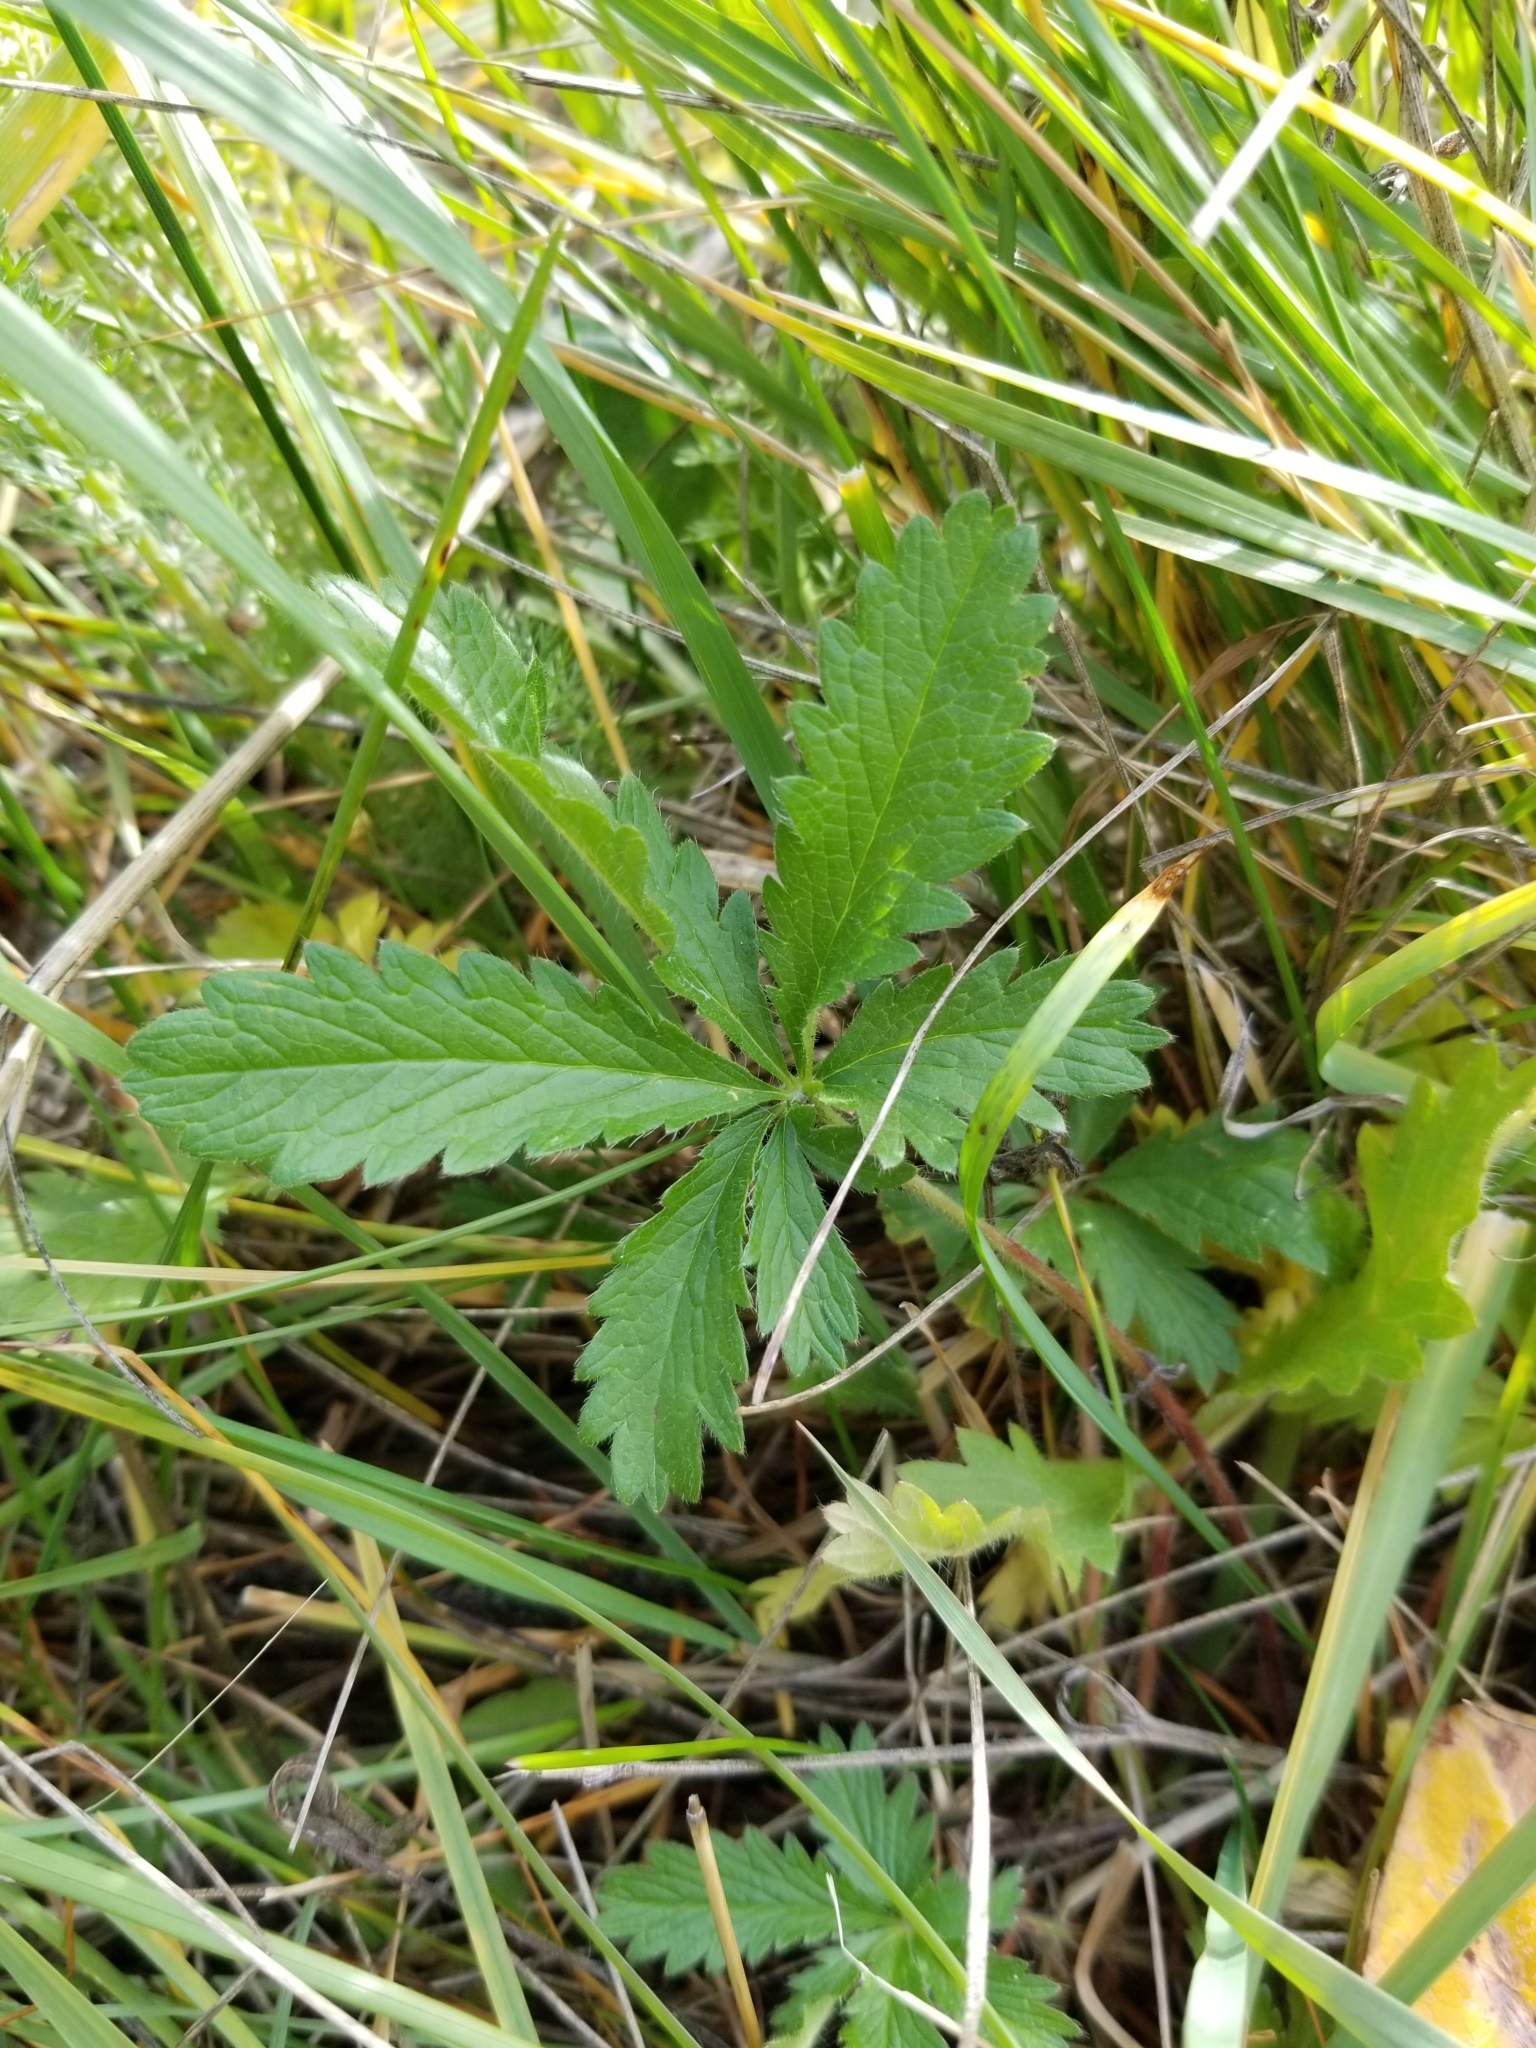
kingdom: Plantae
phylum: Tracheophyta
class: Magnoliopsida
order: Rosales
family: Rosaceae
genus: Potentilla
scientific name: Potentilla recta
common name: Sulphur cinquefoil
